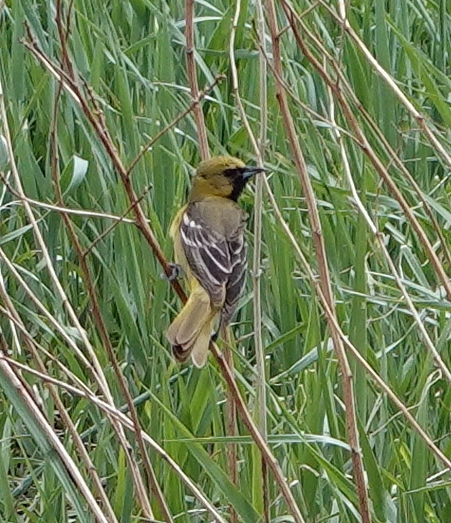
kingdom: Animalia
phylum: Chordata
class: Aves
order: Passeriformes
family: Icteridae
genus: Icterus
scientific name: Icterus spurius
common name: Orchard oriole
